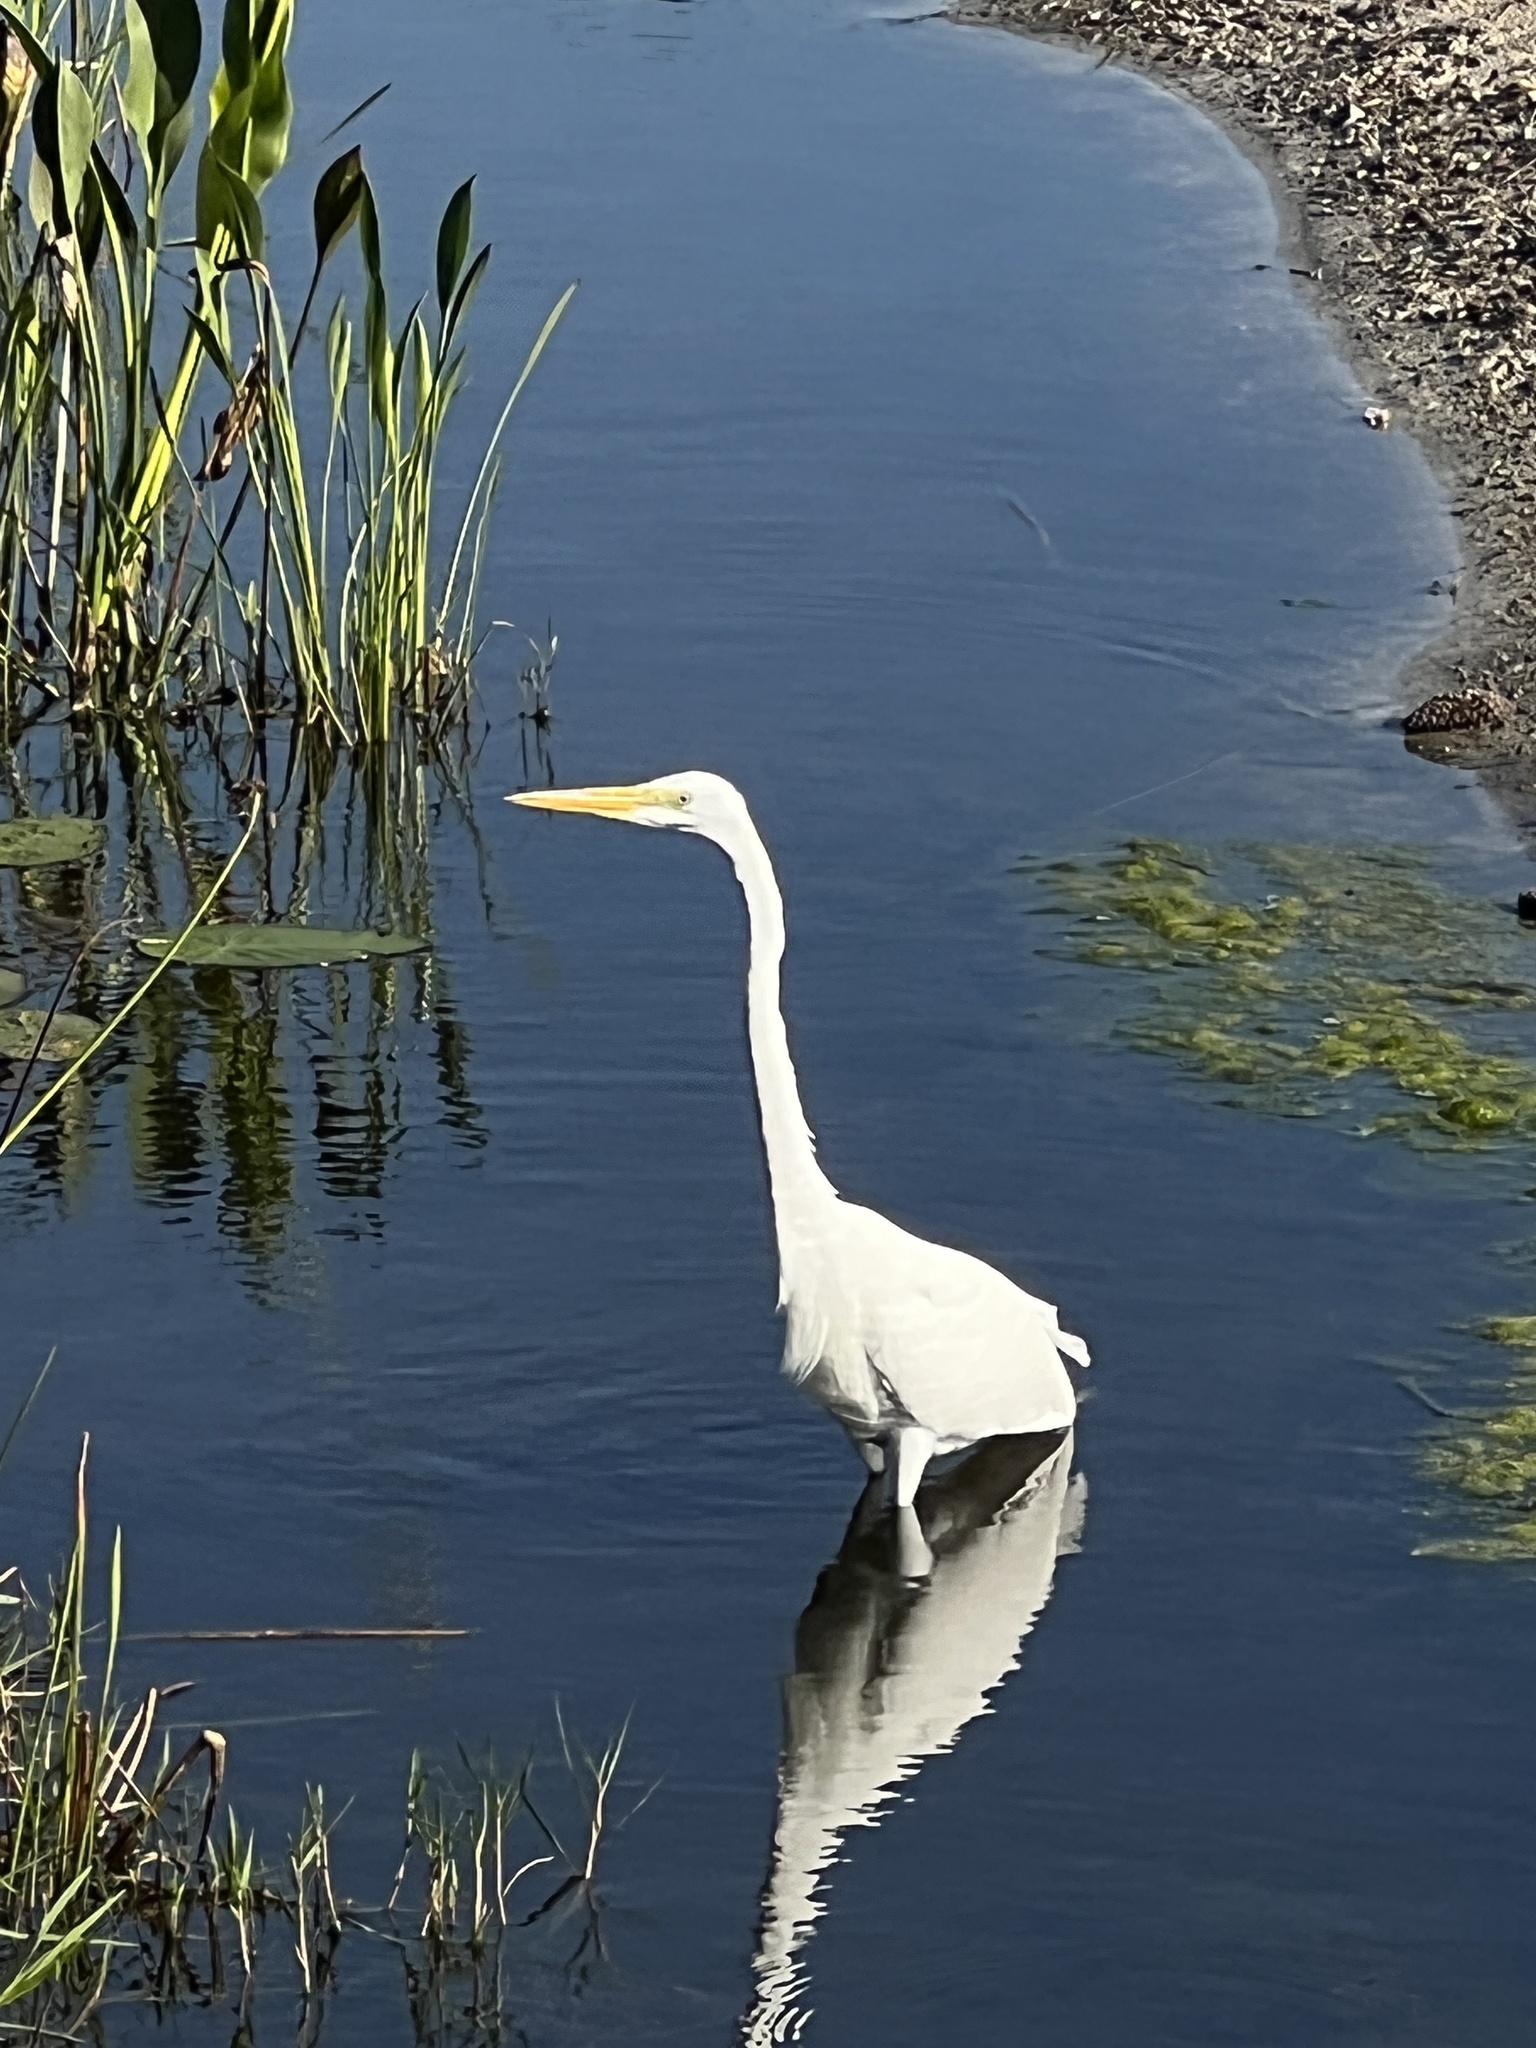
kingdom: Animalia
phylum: Chordata
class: Aves
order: Pelecaniformes
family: Ardeidae
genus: Ardea
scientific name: Ardea alba
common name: Great egret
